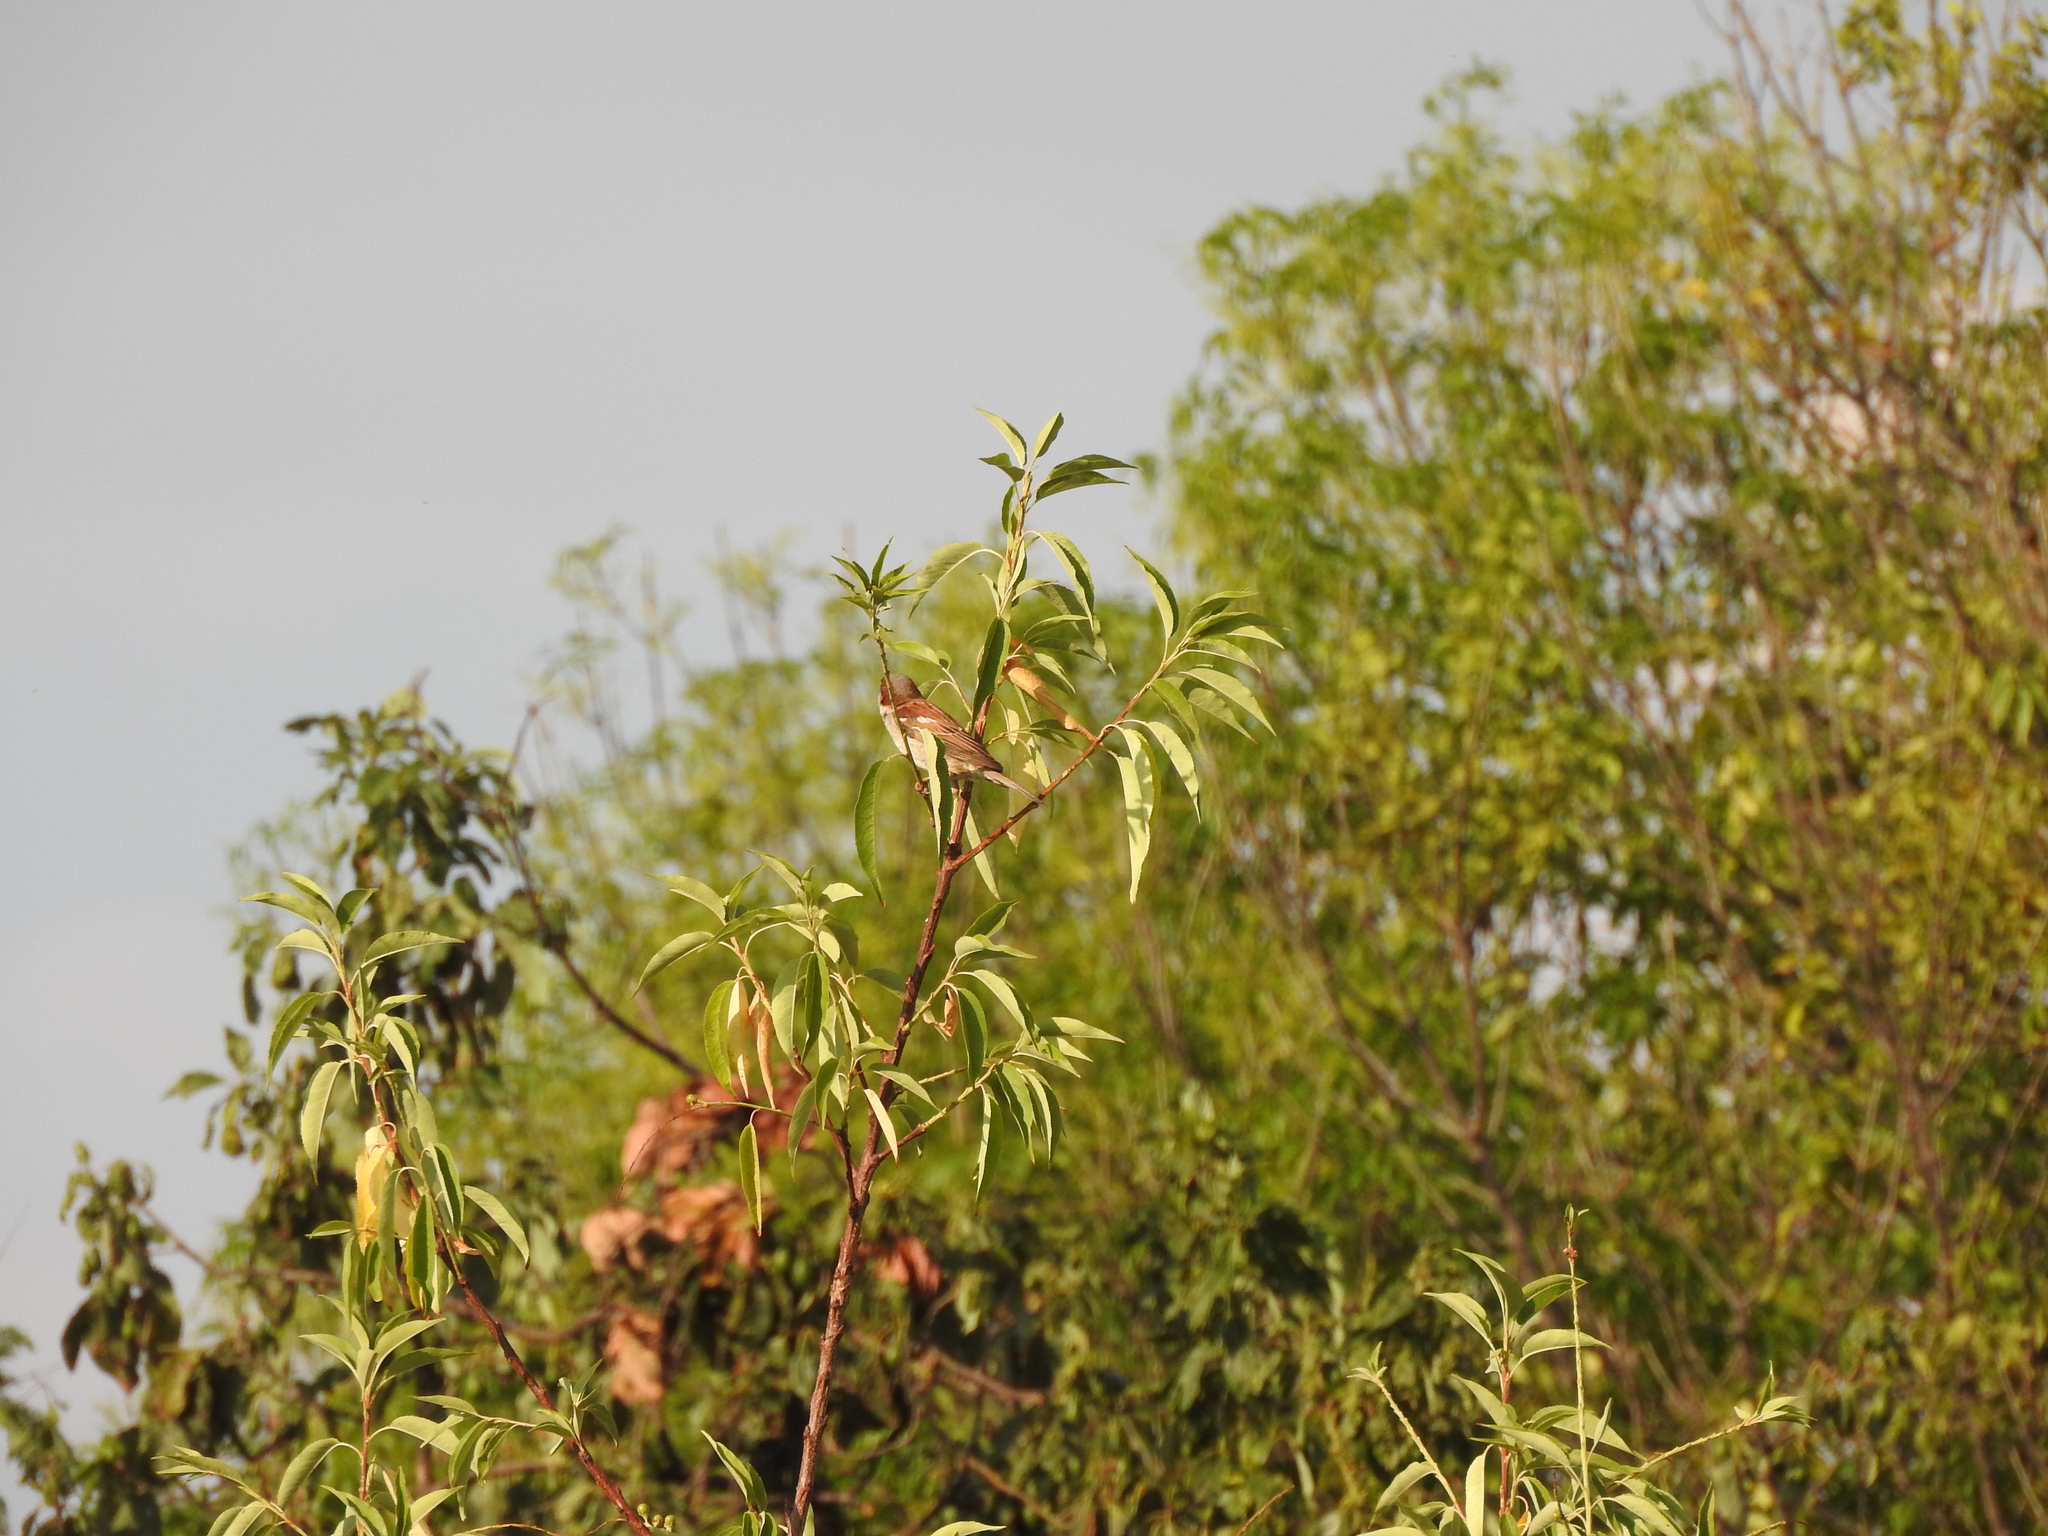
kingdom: Animalia
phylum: Chordata
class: Aves
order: Passeriformes
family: Passeridae
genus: Passer
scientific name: Passer domesticus
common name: House sparrow
